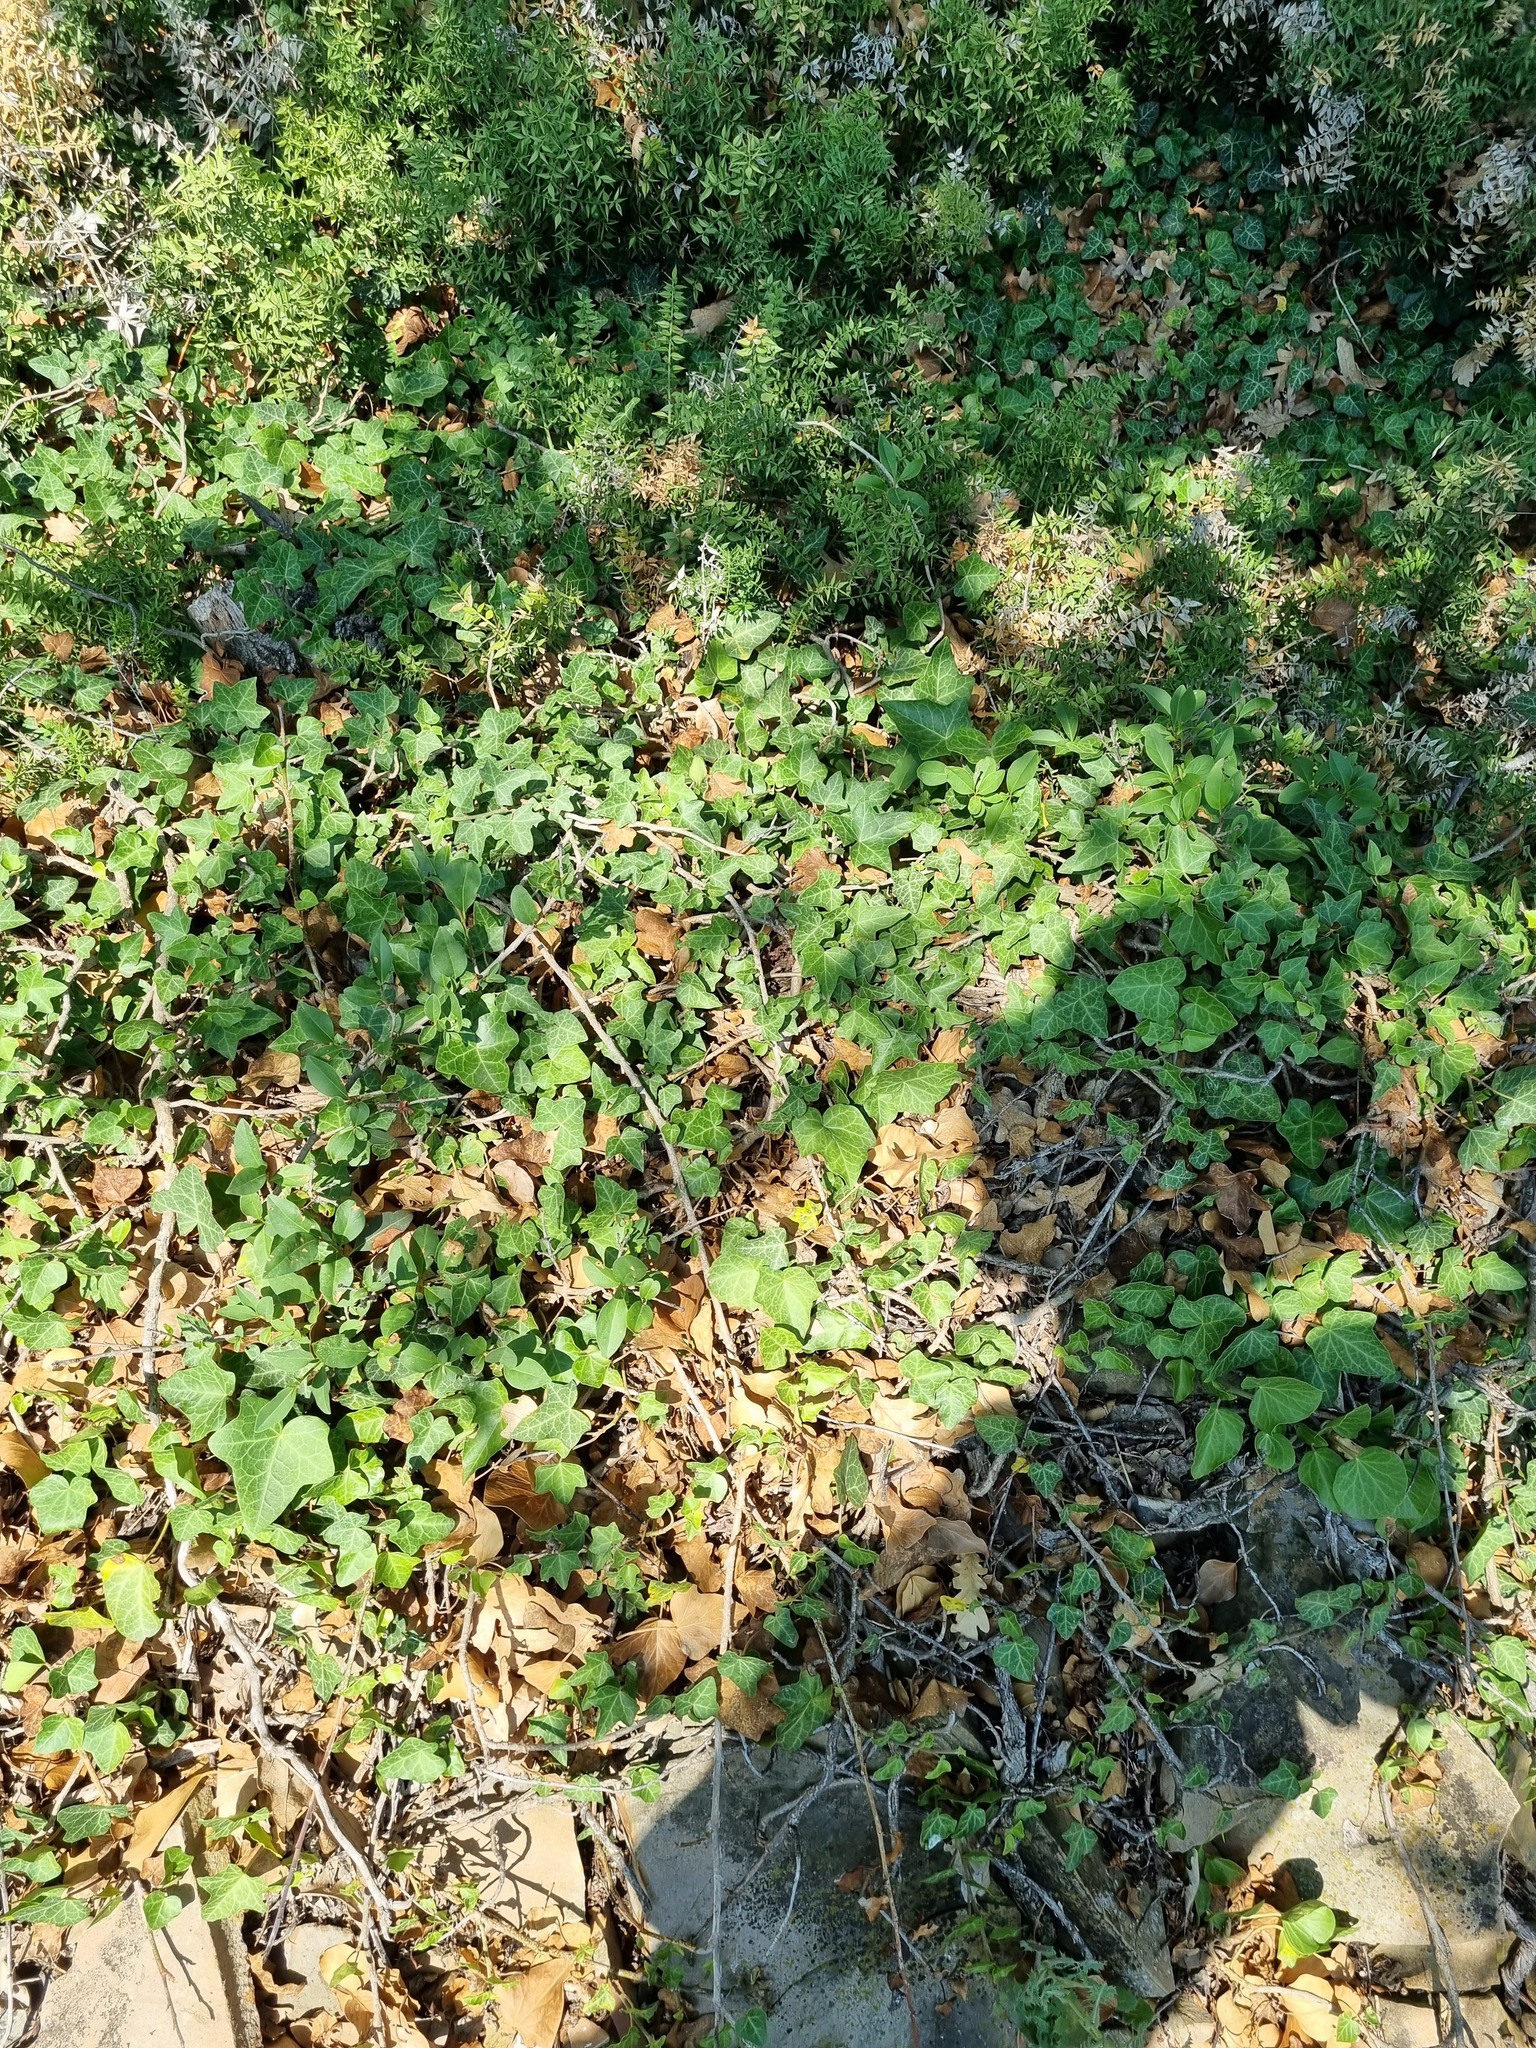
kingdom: Plantae
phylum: Tracheophyta
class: Magnoliopsida
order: Apiales
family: Araliaceae
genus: Hedera
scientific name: Hedera helix
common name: Ivy
